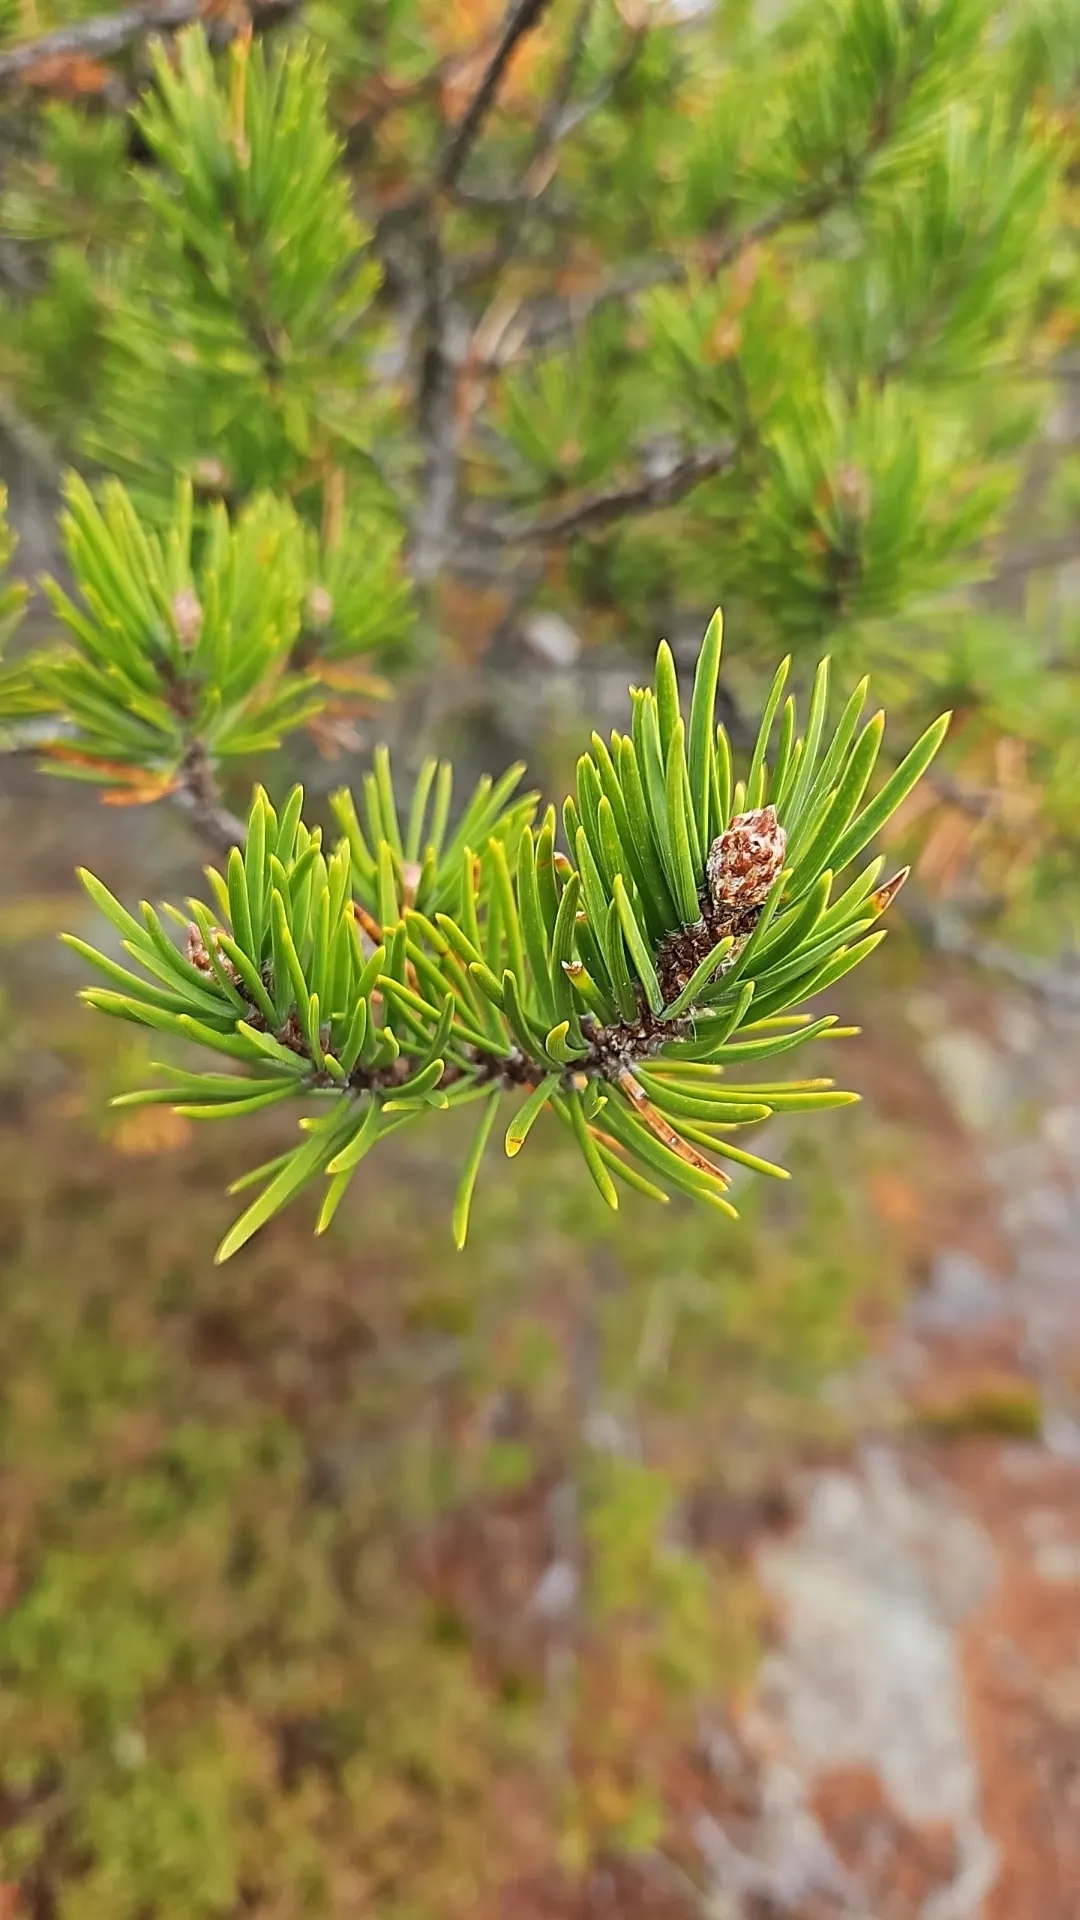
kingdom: Plantae
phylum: Tracheophyta
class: Pinopsida
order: Pinales
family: Pinaceae
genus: Pinus
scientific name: Pinus banksiana
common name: Jack pine
